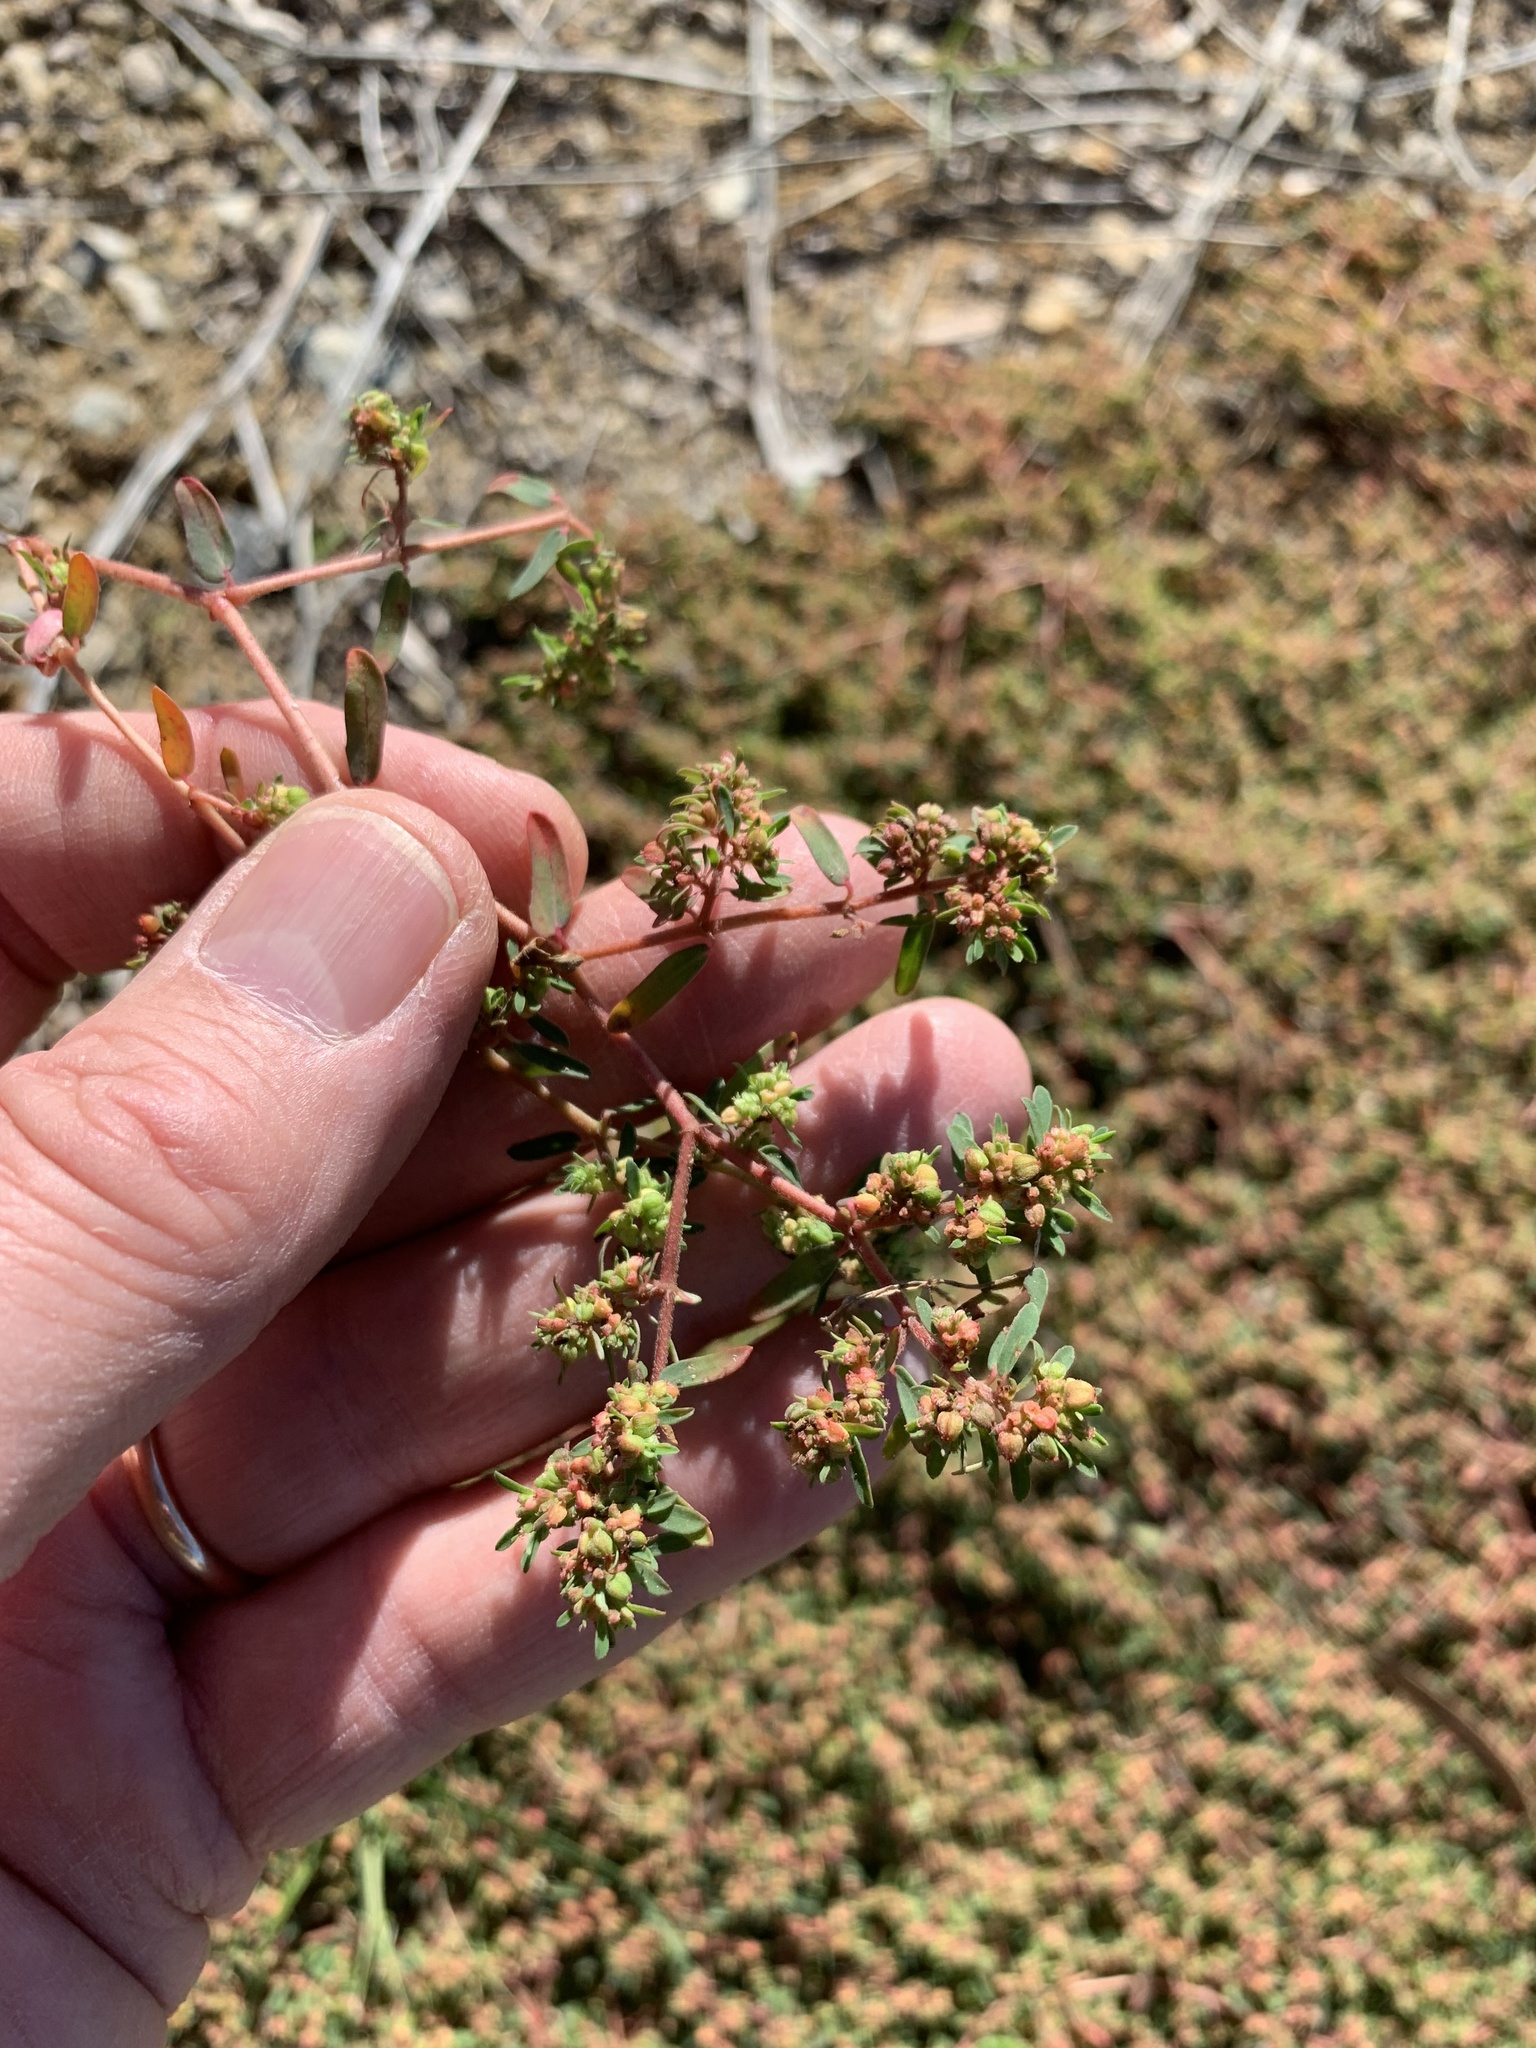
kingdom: Plantae
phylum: Tracheophyta
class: Magnoliopsida
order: Malpighiales
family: Euphorbiaceae
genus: Euphorbia
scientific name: Euphorbia maculata
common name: Spotted spurge
